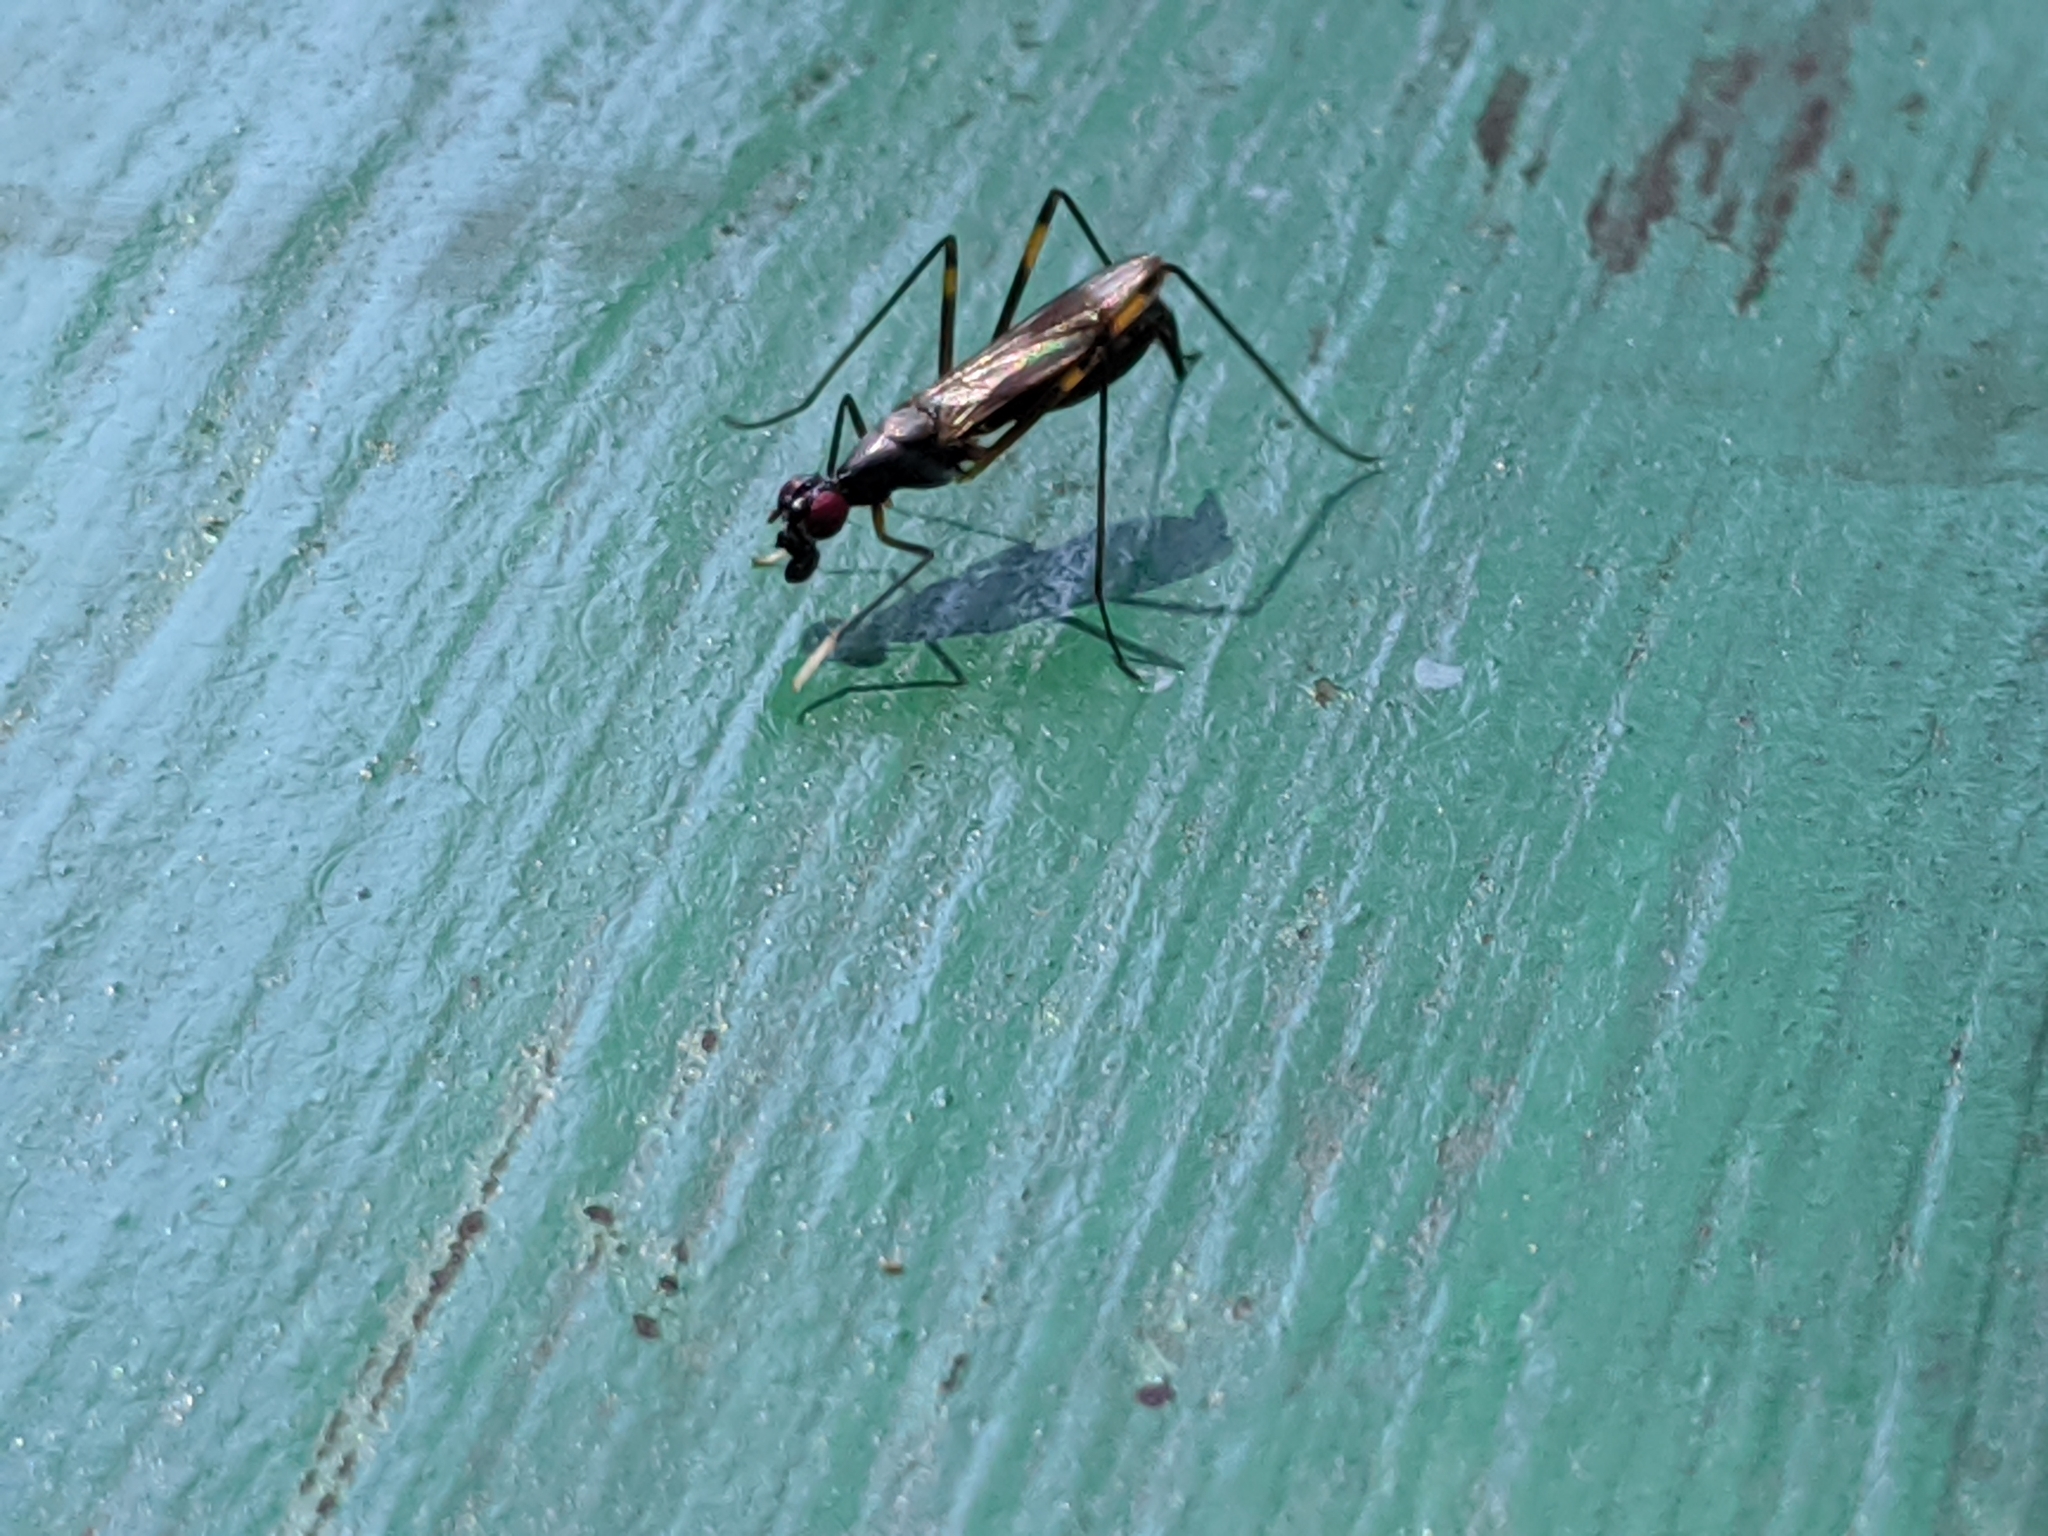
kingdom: Animalia
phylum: Arthropoda
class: Insecta
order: Diptera
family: Micropezidae
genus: Rainieria
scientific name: Rainieria antennaepes
